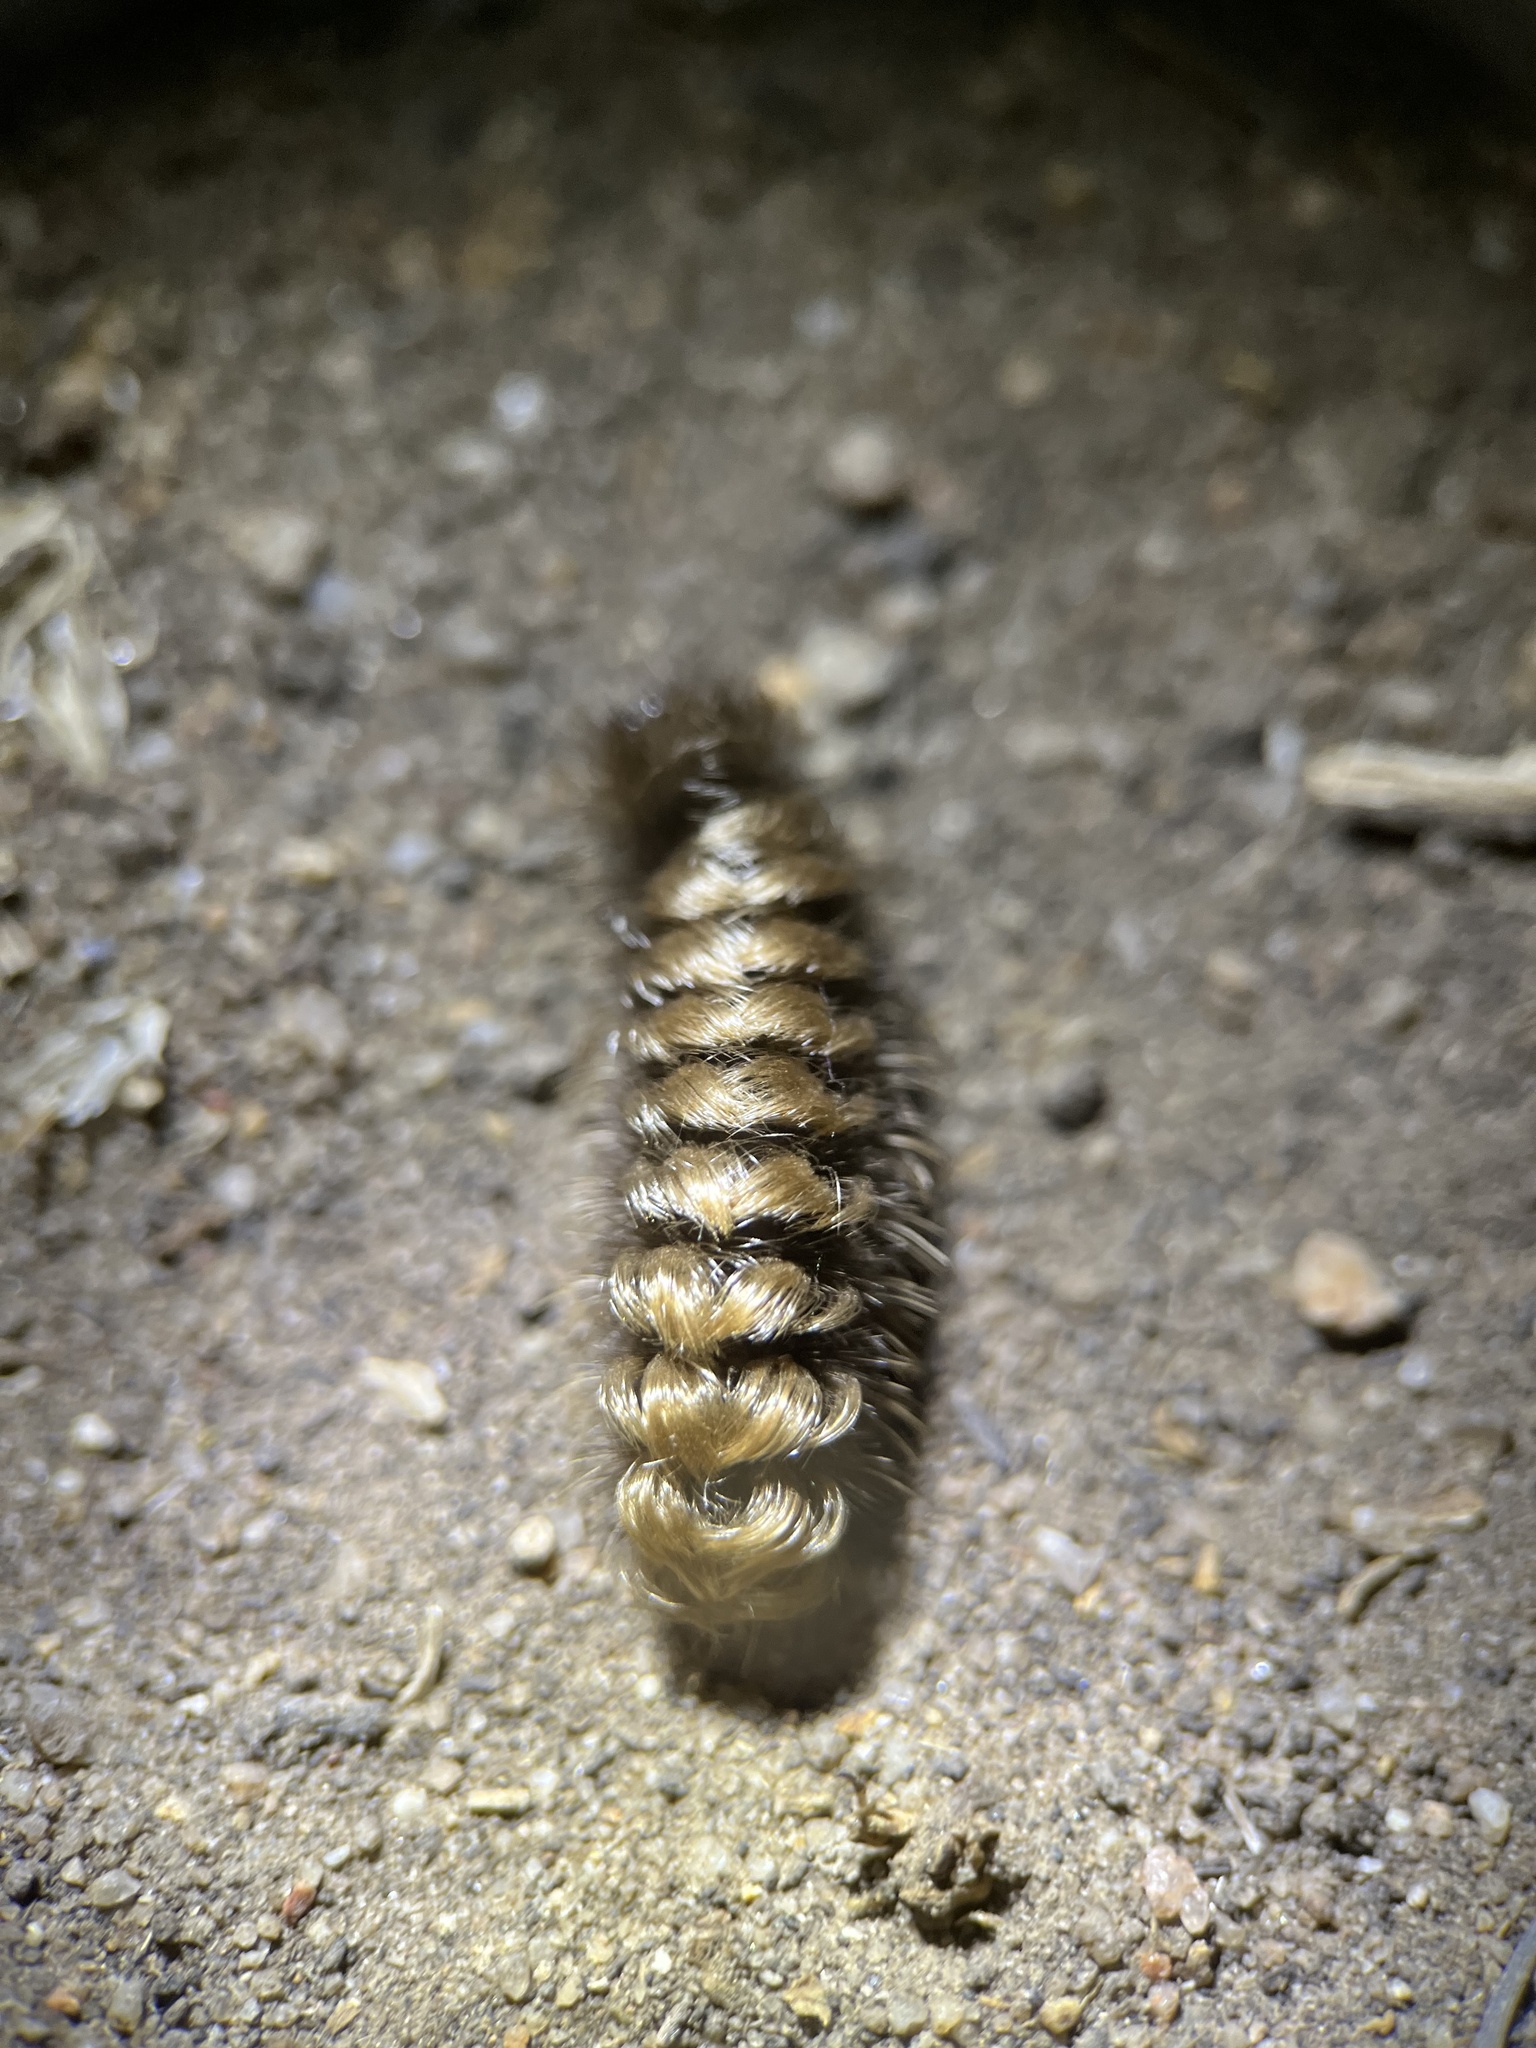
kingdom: Animalia
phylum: Arthropoda
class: Insecta
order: Lepidoptera
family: Erebidae
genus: Ectypia
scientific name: Ectypia clio
